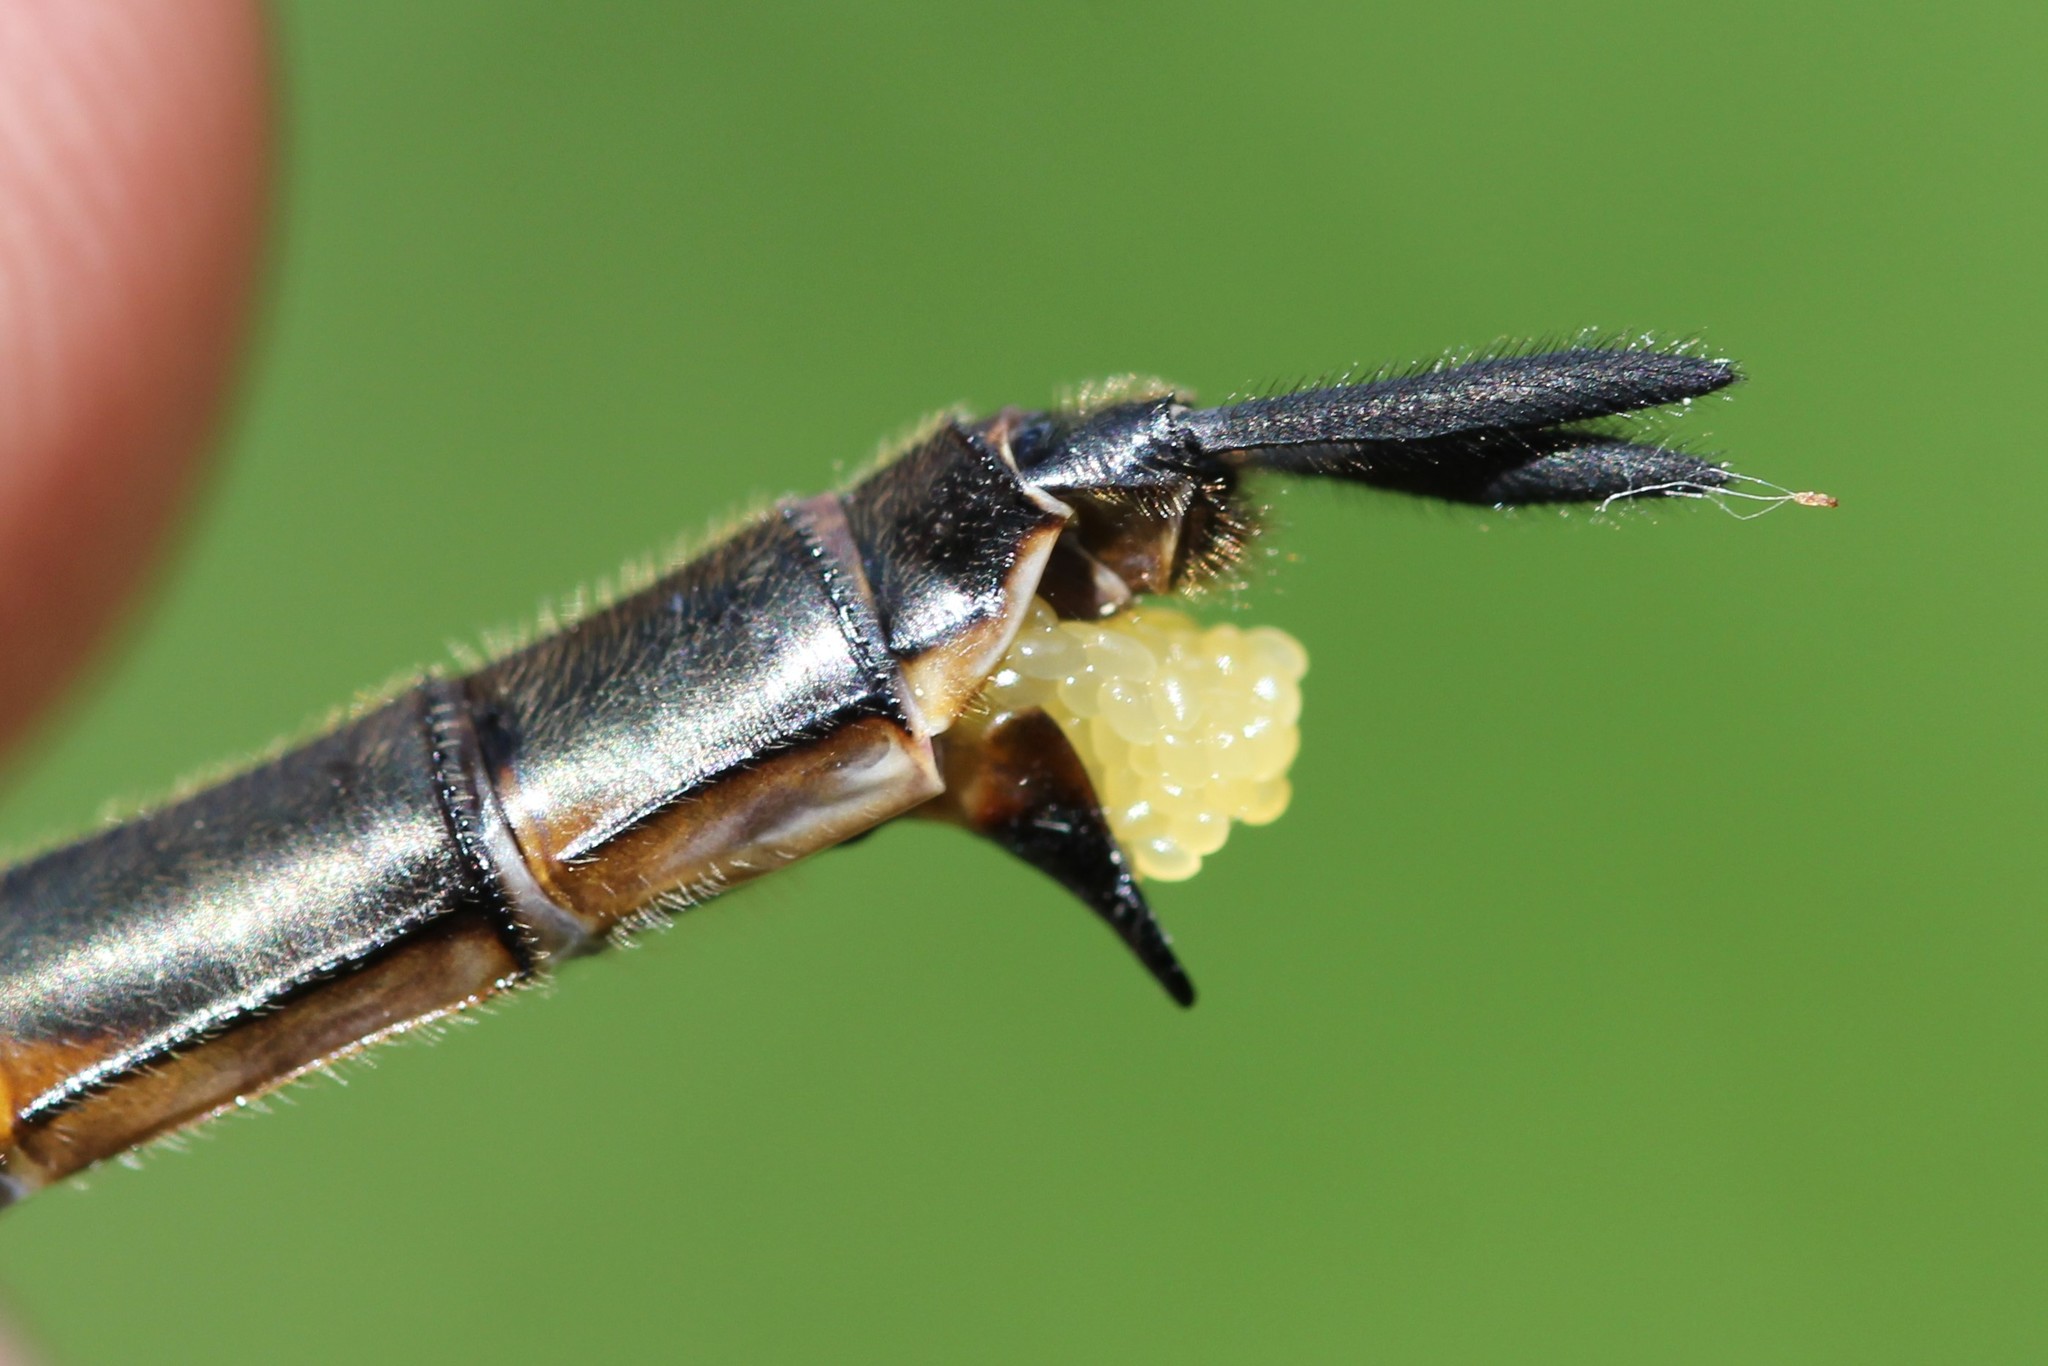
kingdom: Animalia
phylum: Arthropoda
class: Insecta
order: Odonata
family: Corduliidae
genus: Somatochlora
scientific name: Somatochlora williamsoni
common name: Williamson's emerald
